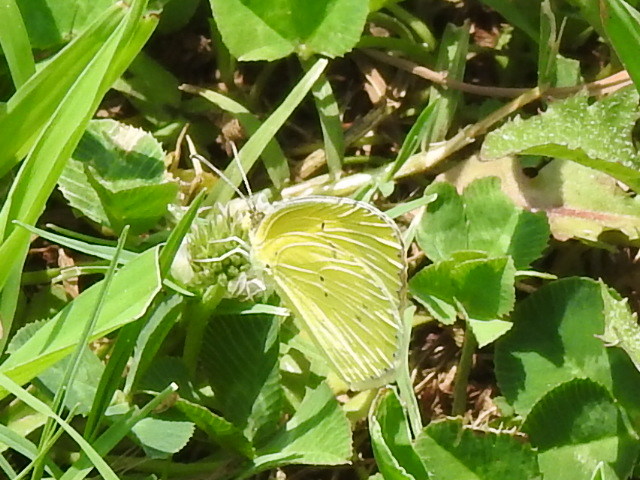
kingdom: Animalia
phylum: Arthropoda
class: Insecta
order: Lepidoptera
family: Pieridae
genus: Pyrisitia
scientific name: Pyrisitia lisa
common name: Little yellow
